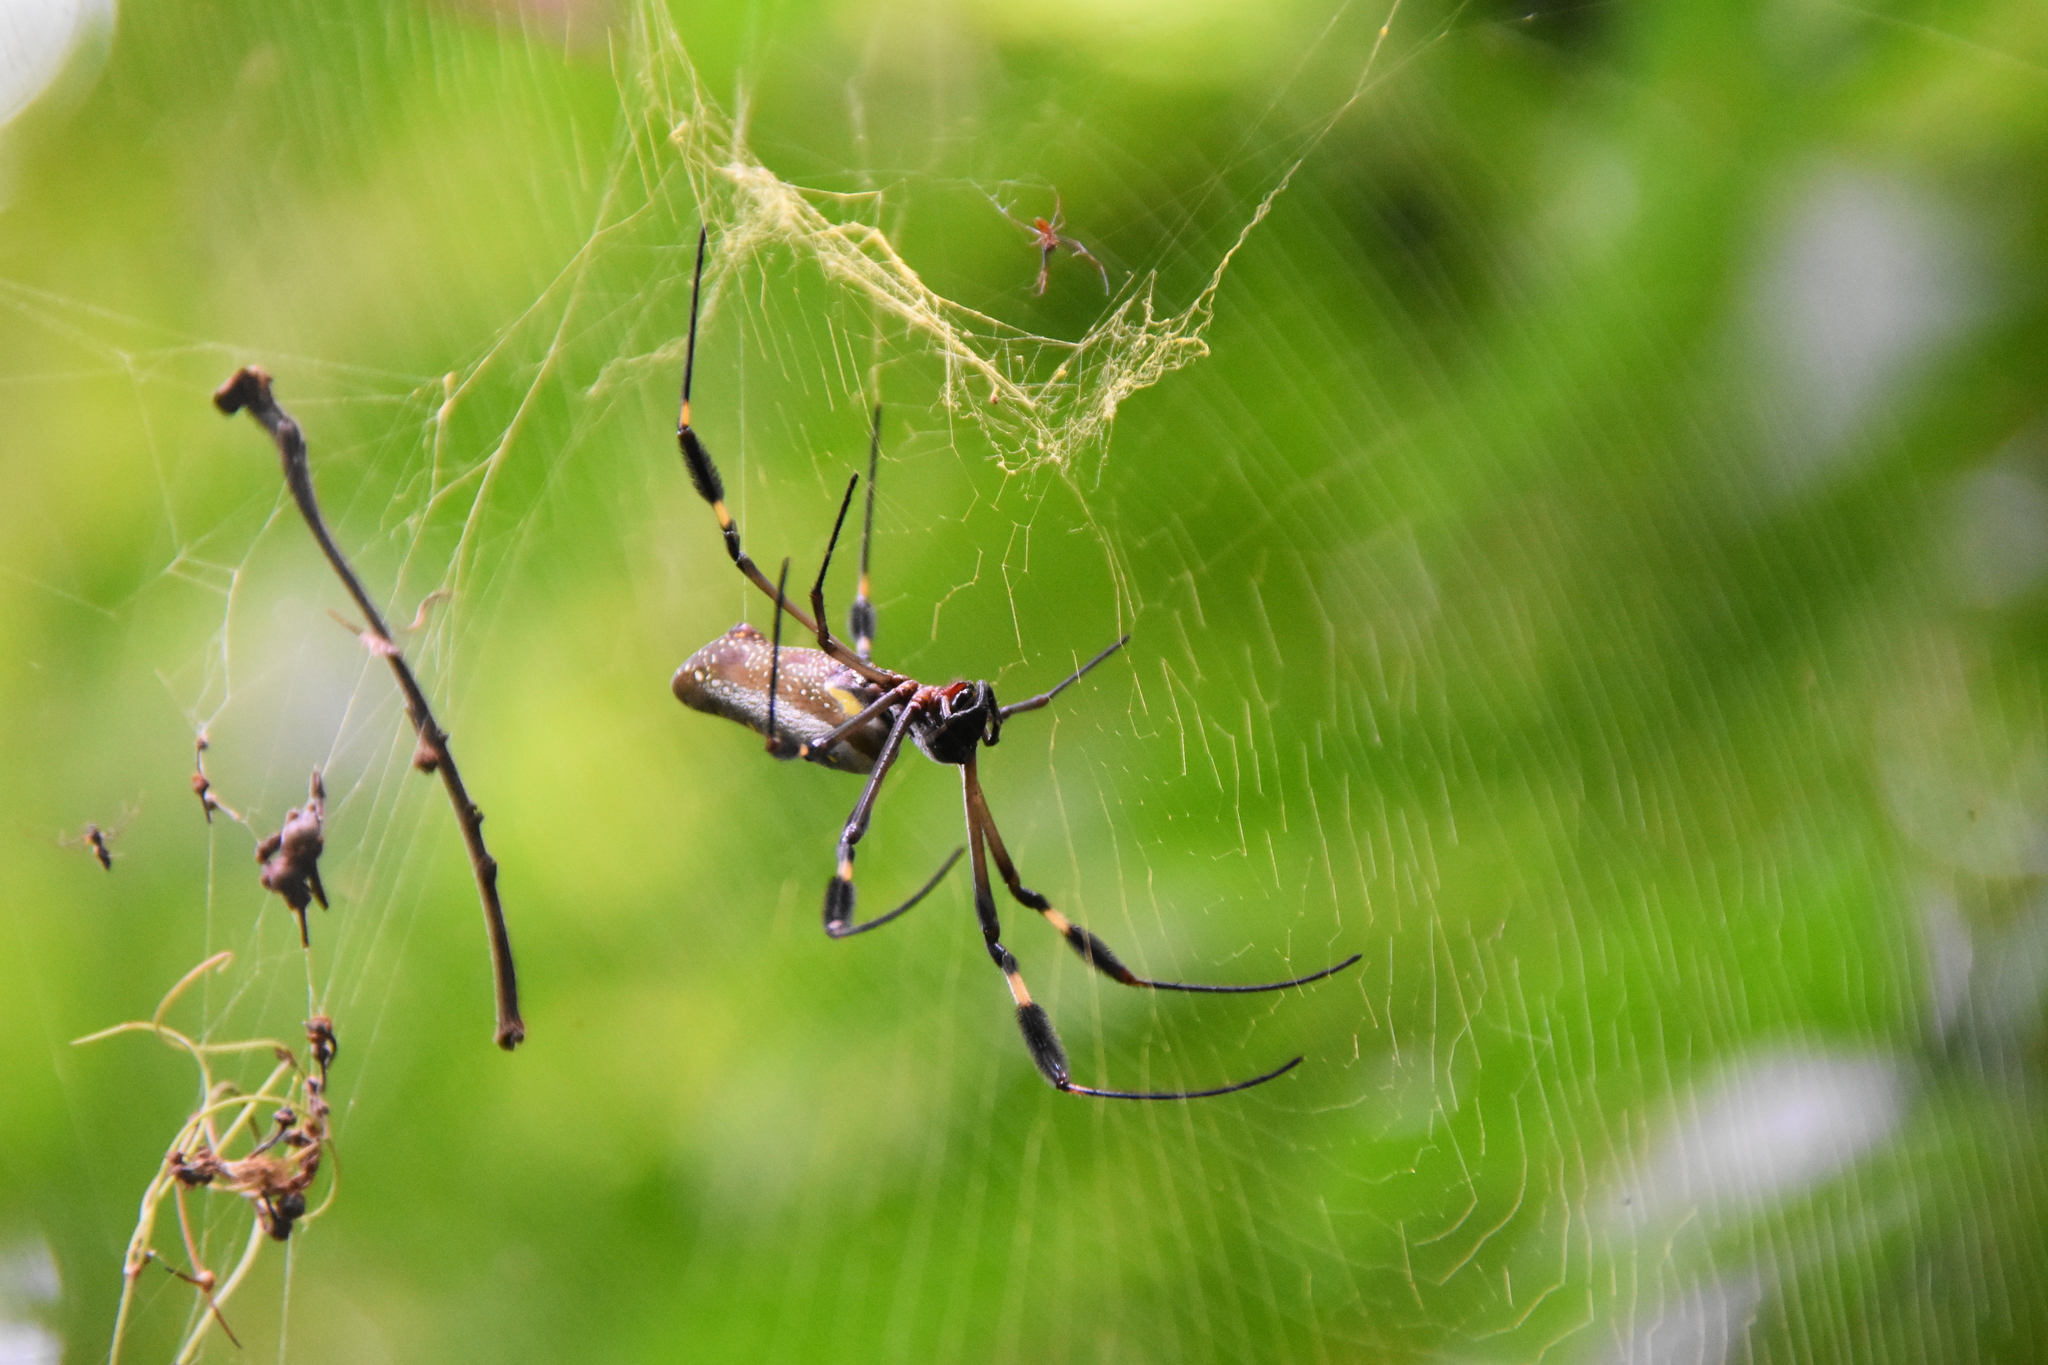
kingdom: Animalia
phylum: Arthropoda
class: Arachnida
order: Araneae
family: Araneidae
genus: Trichonephila
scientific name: Trichonephila clavipes
